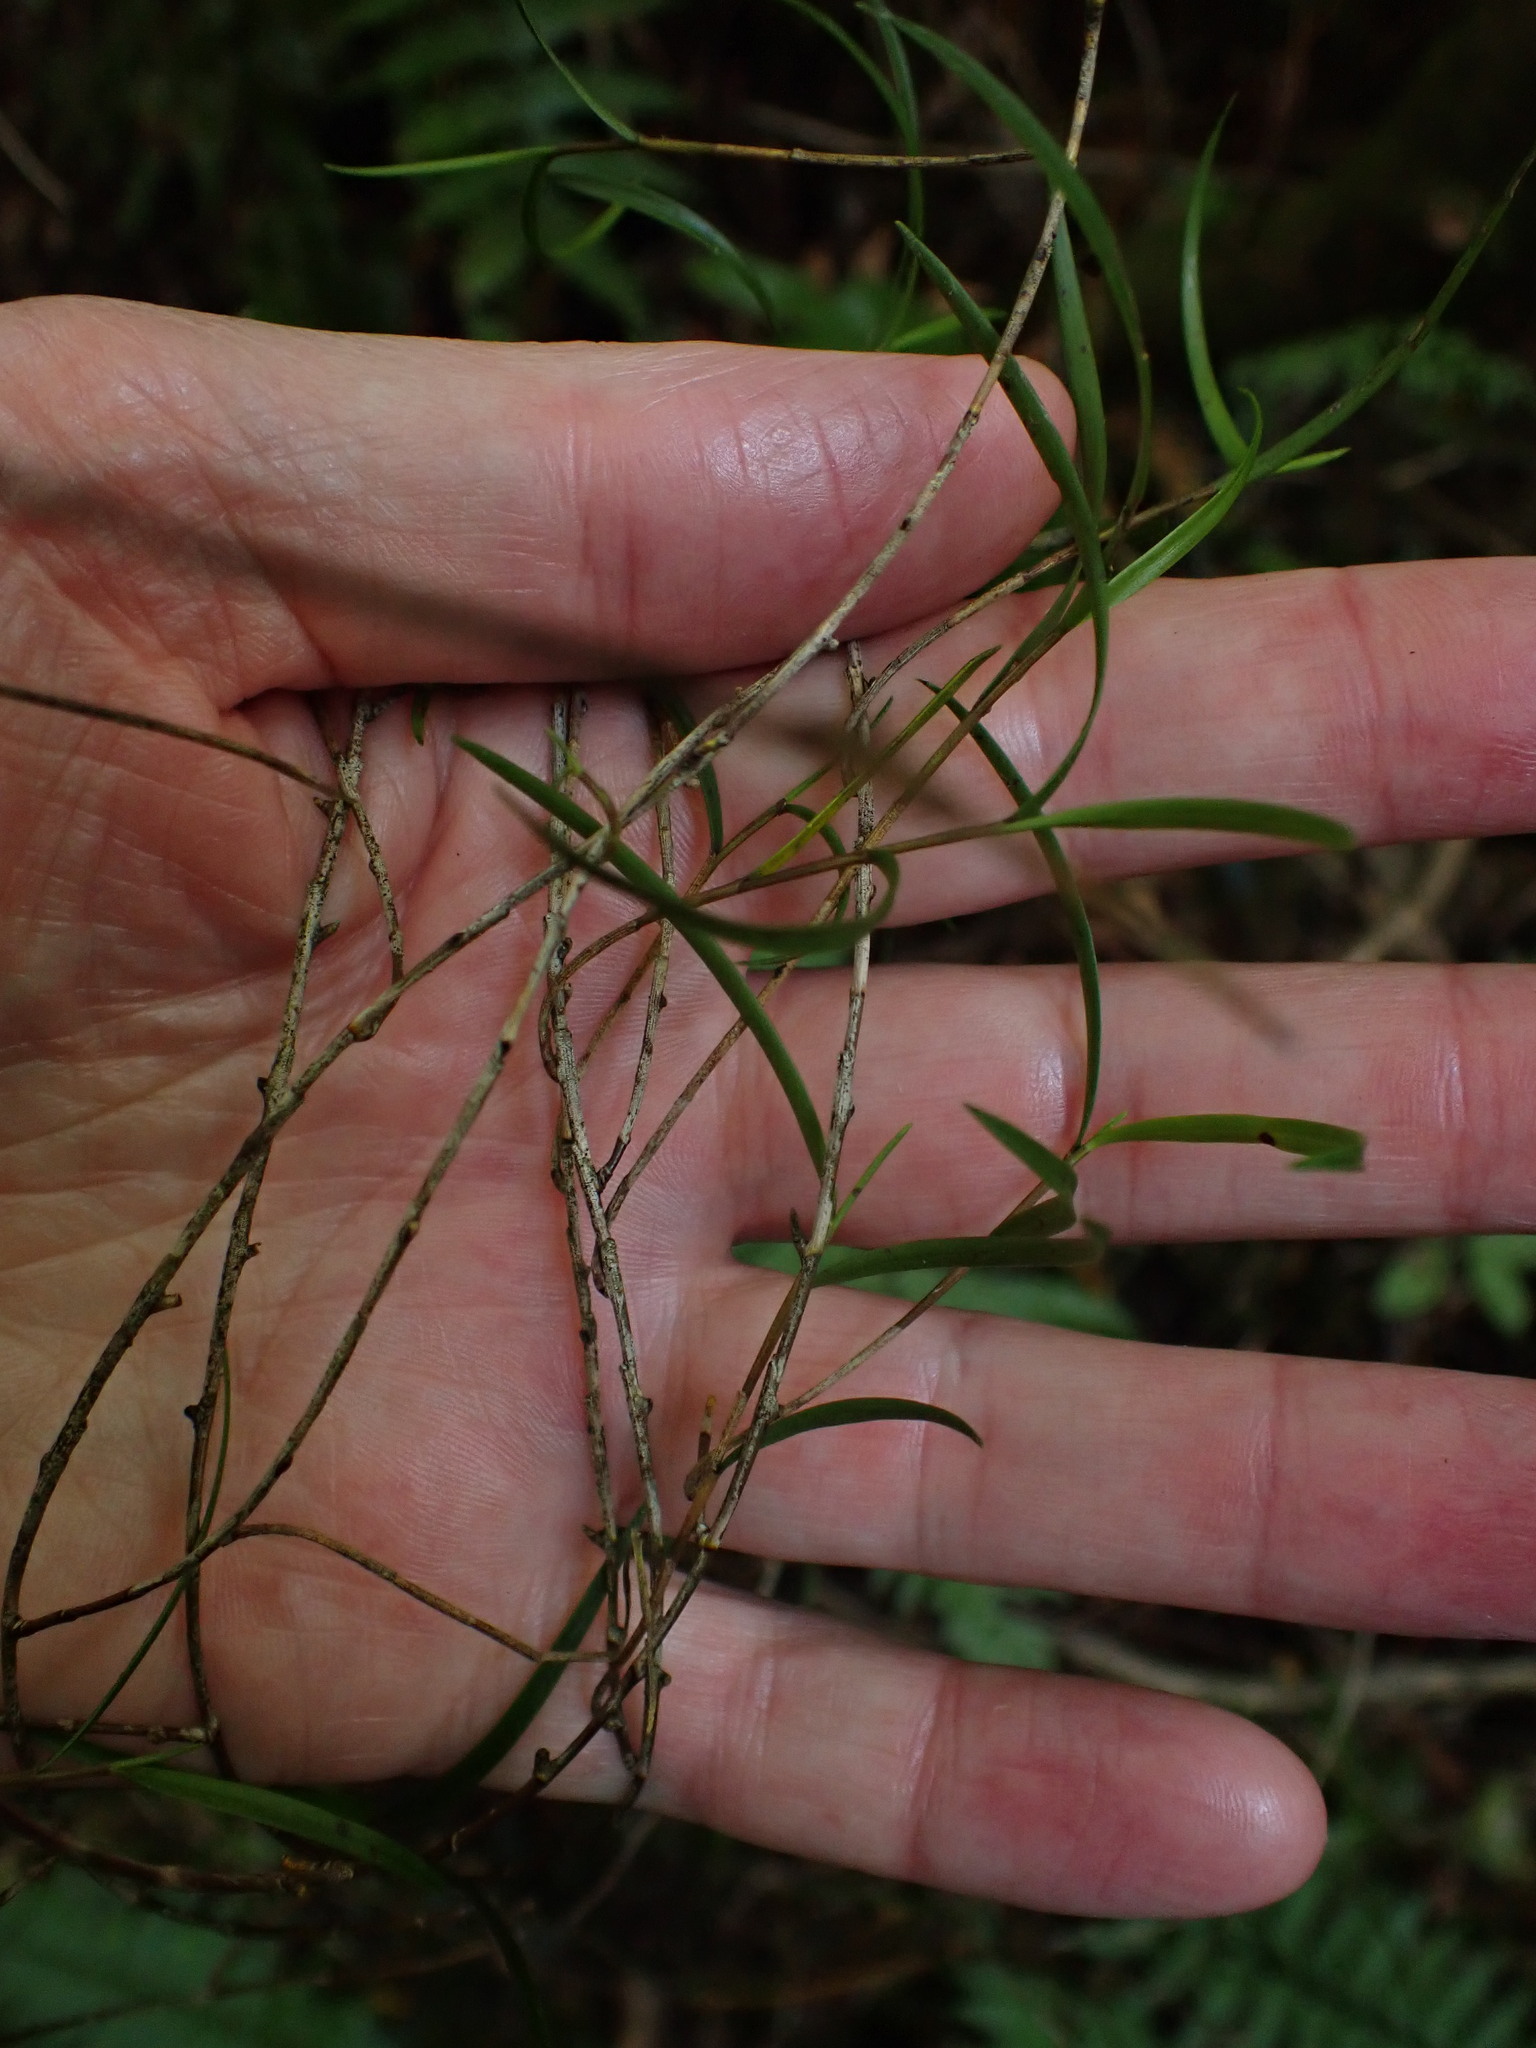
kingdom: Plantae
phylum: Tracheophyta
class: Liliopsida
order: Asparagales
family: Orchidaceae
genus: Dendrobium
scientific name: Dendrobium cunninghamii
